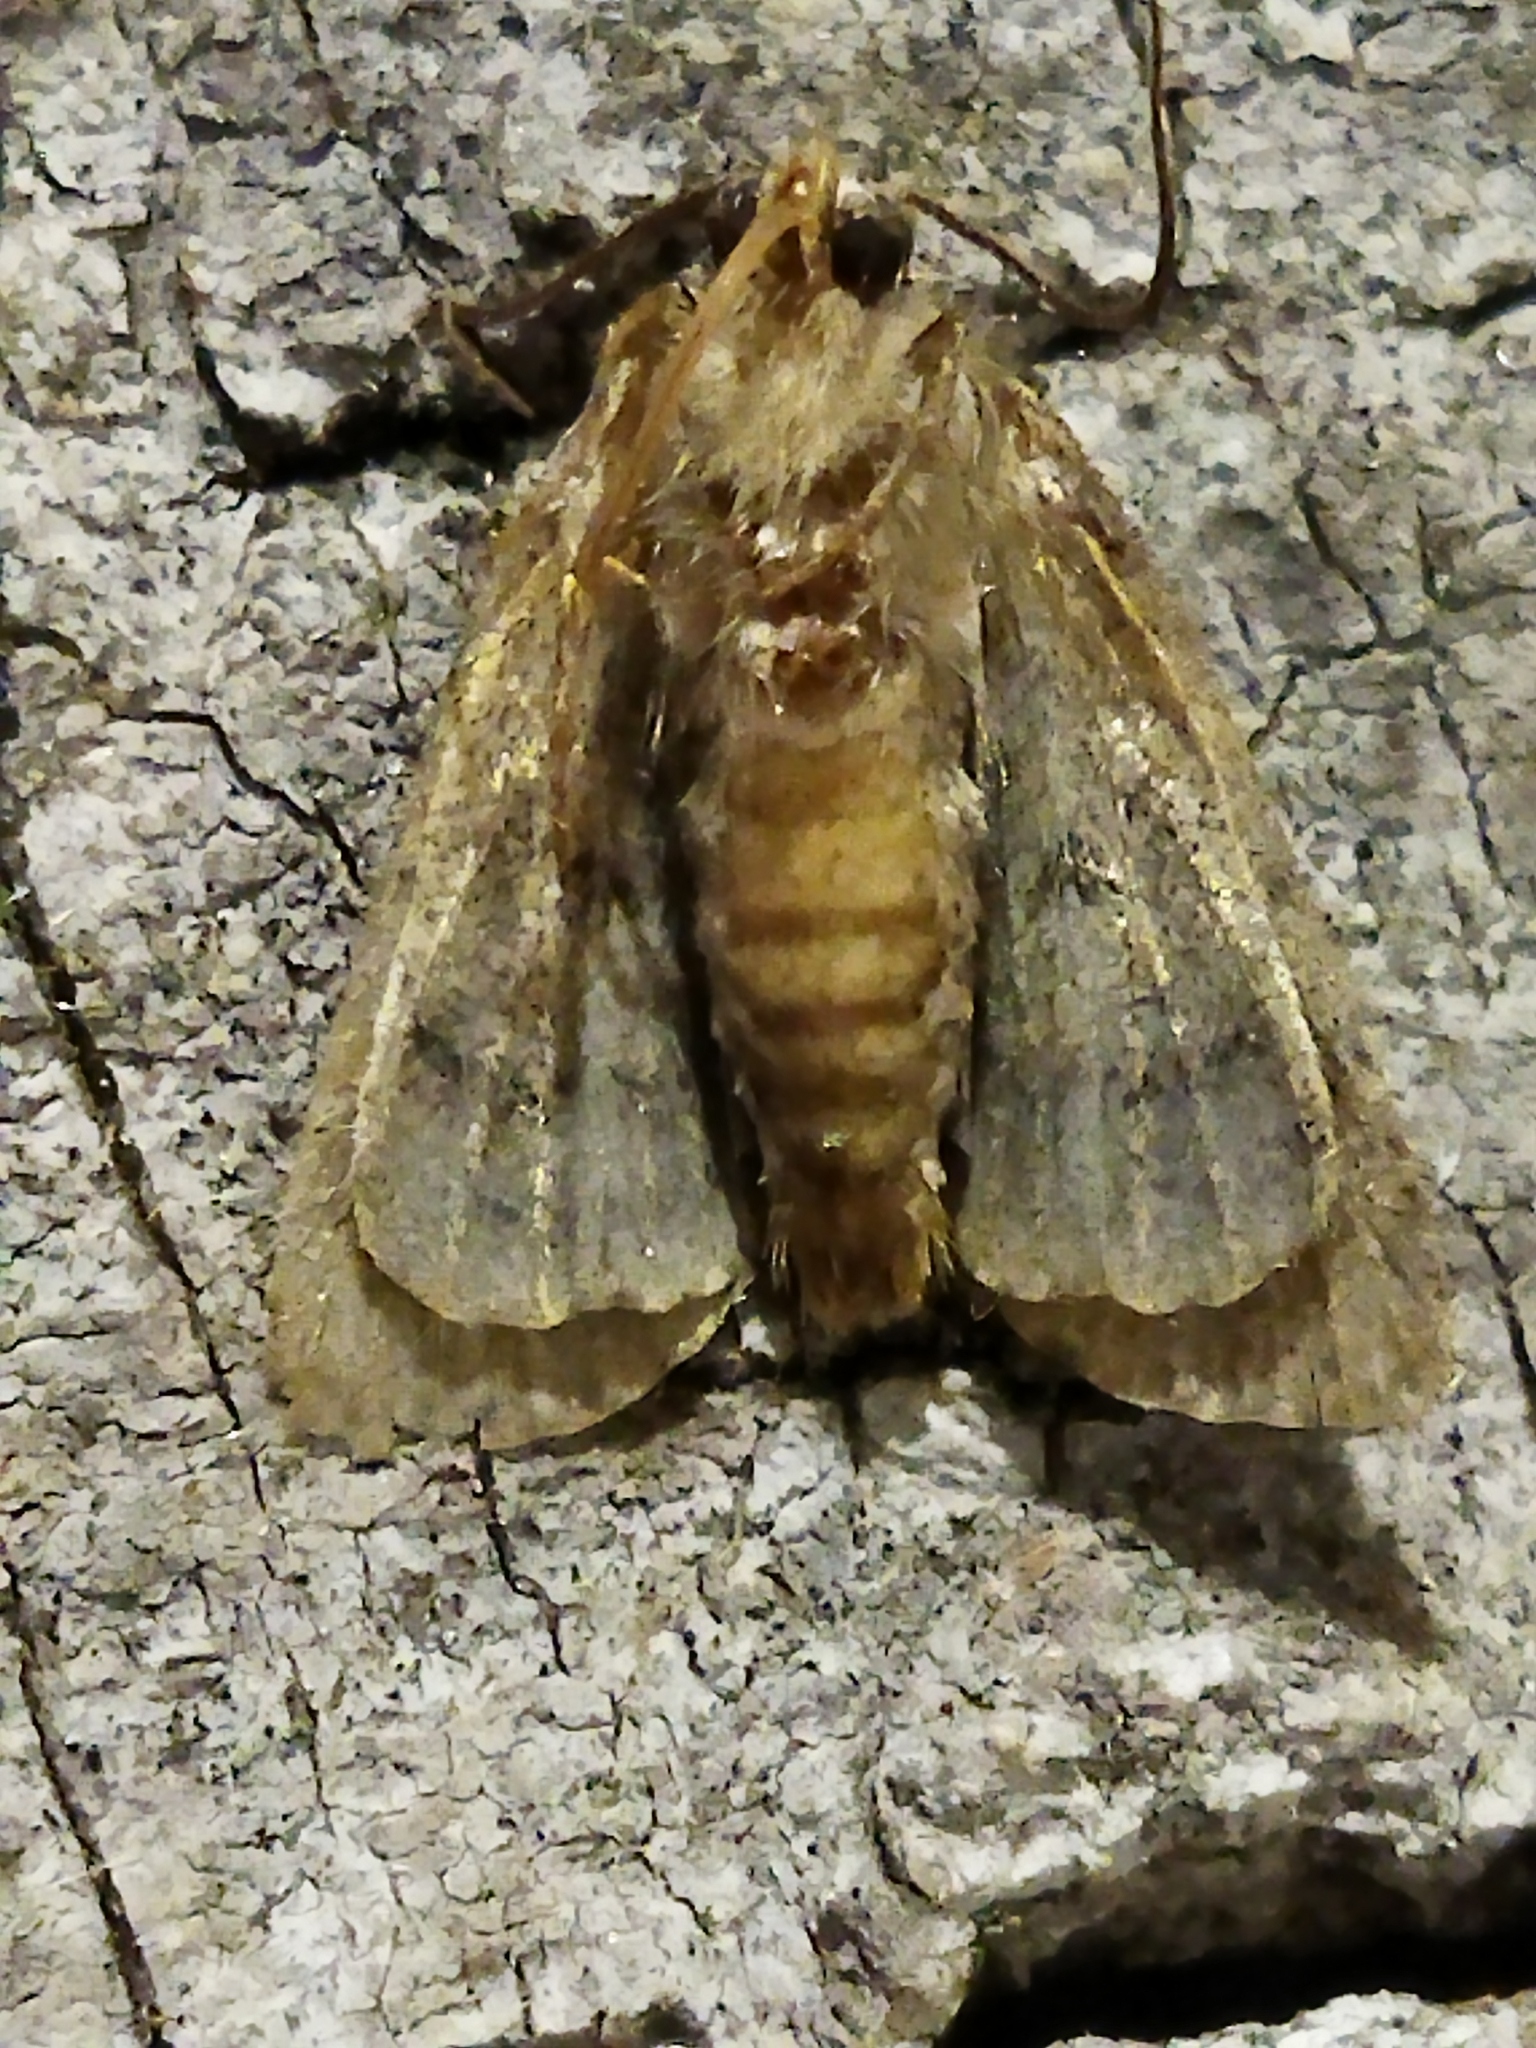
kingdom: Animalia
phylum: Arthropoda
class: Insecta
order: Lepidoptera
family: Noctuidae
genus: Oligia
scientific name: Oligia
